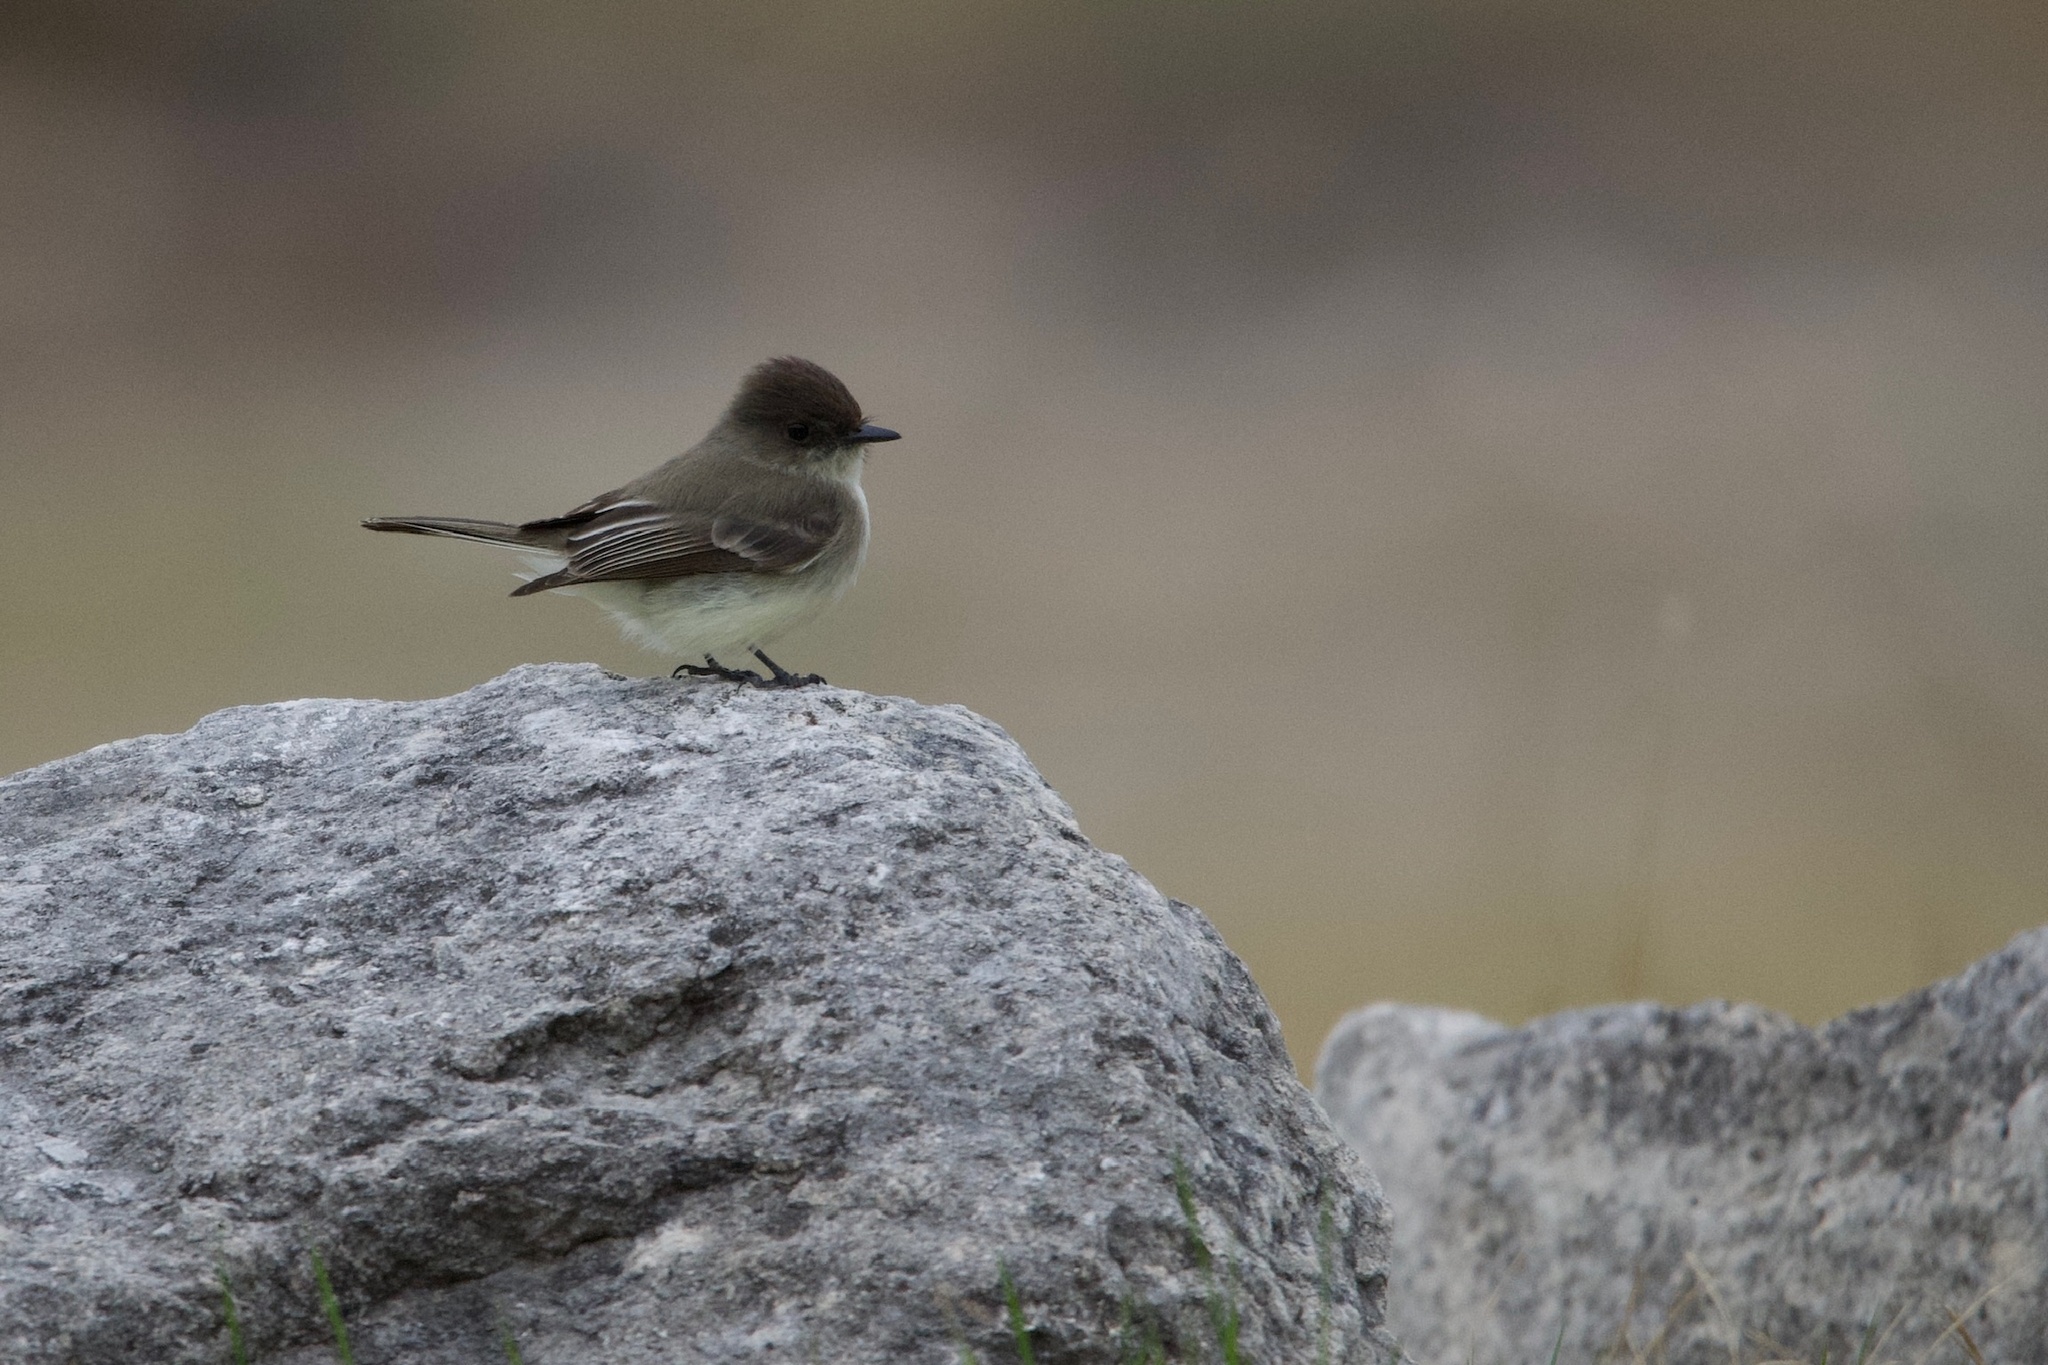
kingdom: Animalia
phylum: Chordata
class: Aves
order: Passeriformes
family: Tyrannidae
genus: Sayornis
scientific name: Sayornis phoebe
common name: Eastern phoebe
